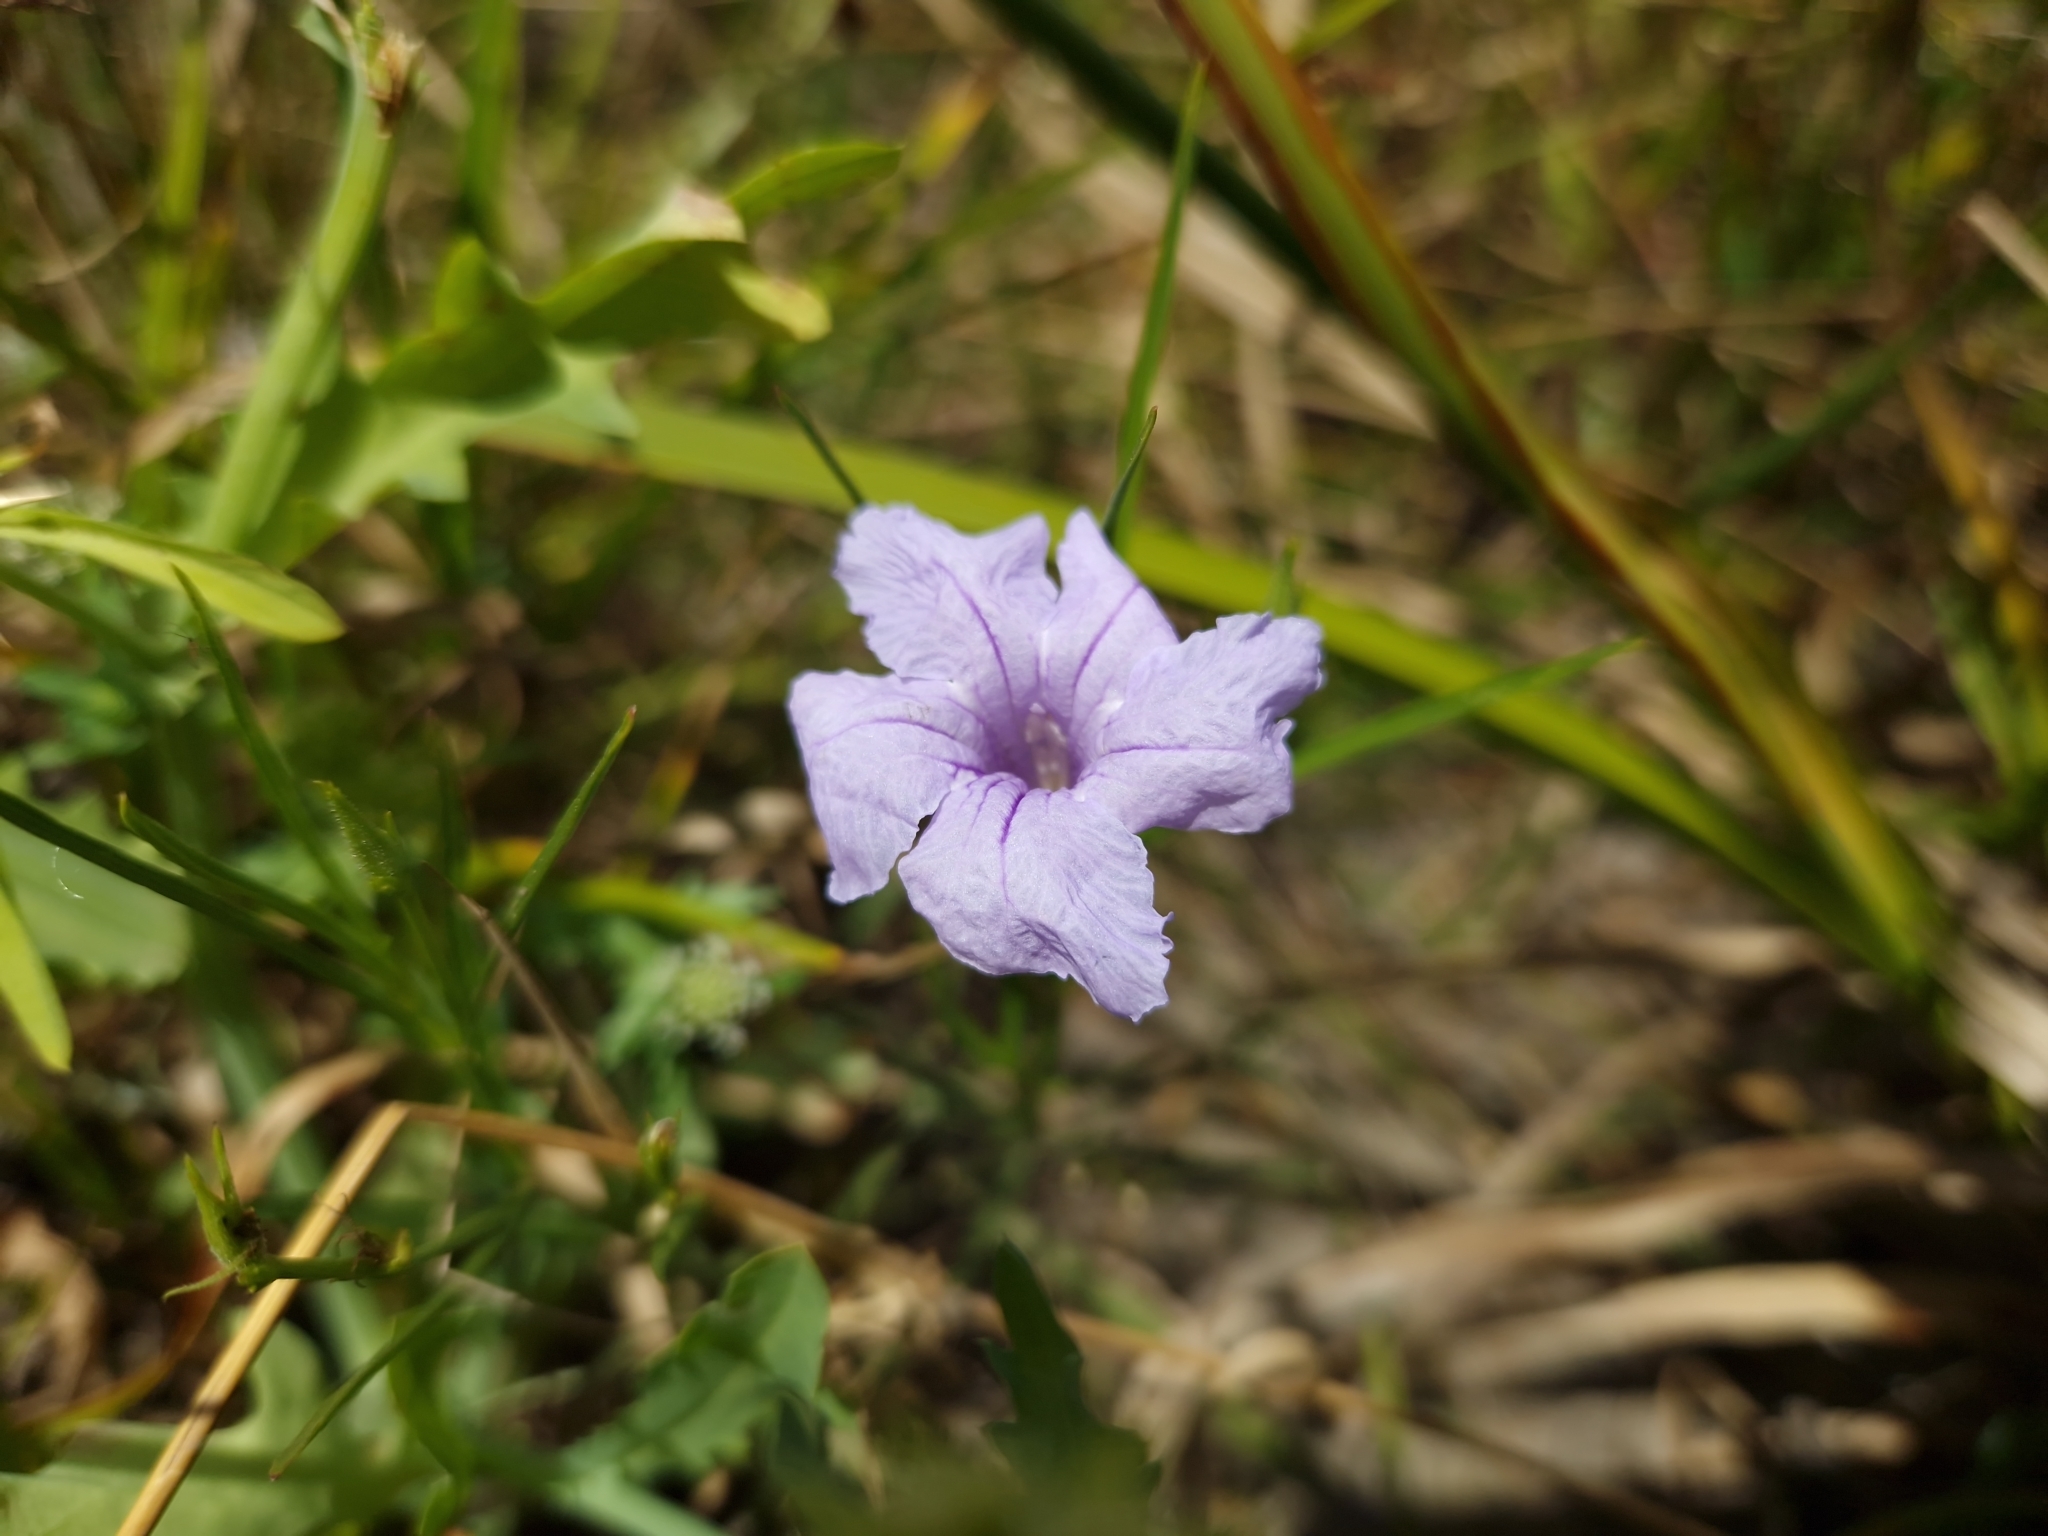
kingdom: Plantae
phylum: Tracheophyta
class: Magnoliopsida
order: Lamiales
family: Acanthaceae
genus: Ruellia
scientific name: Ruellia simplex
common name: Softseed wild petunia
